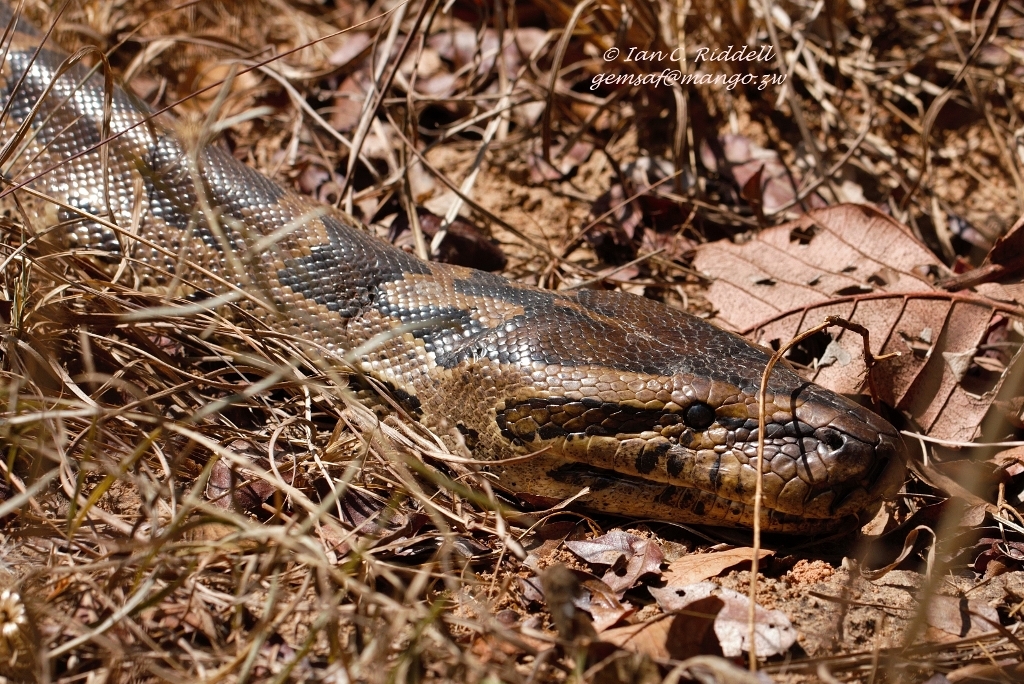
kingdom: Animalia
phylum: Chordata
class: Squamata
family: Pythonidae
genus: Python
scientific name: Python natalensis
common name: Southern african rock python
